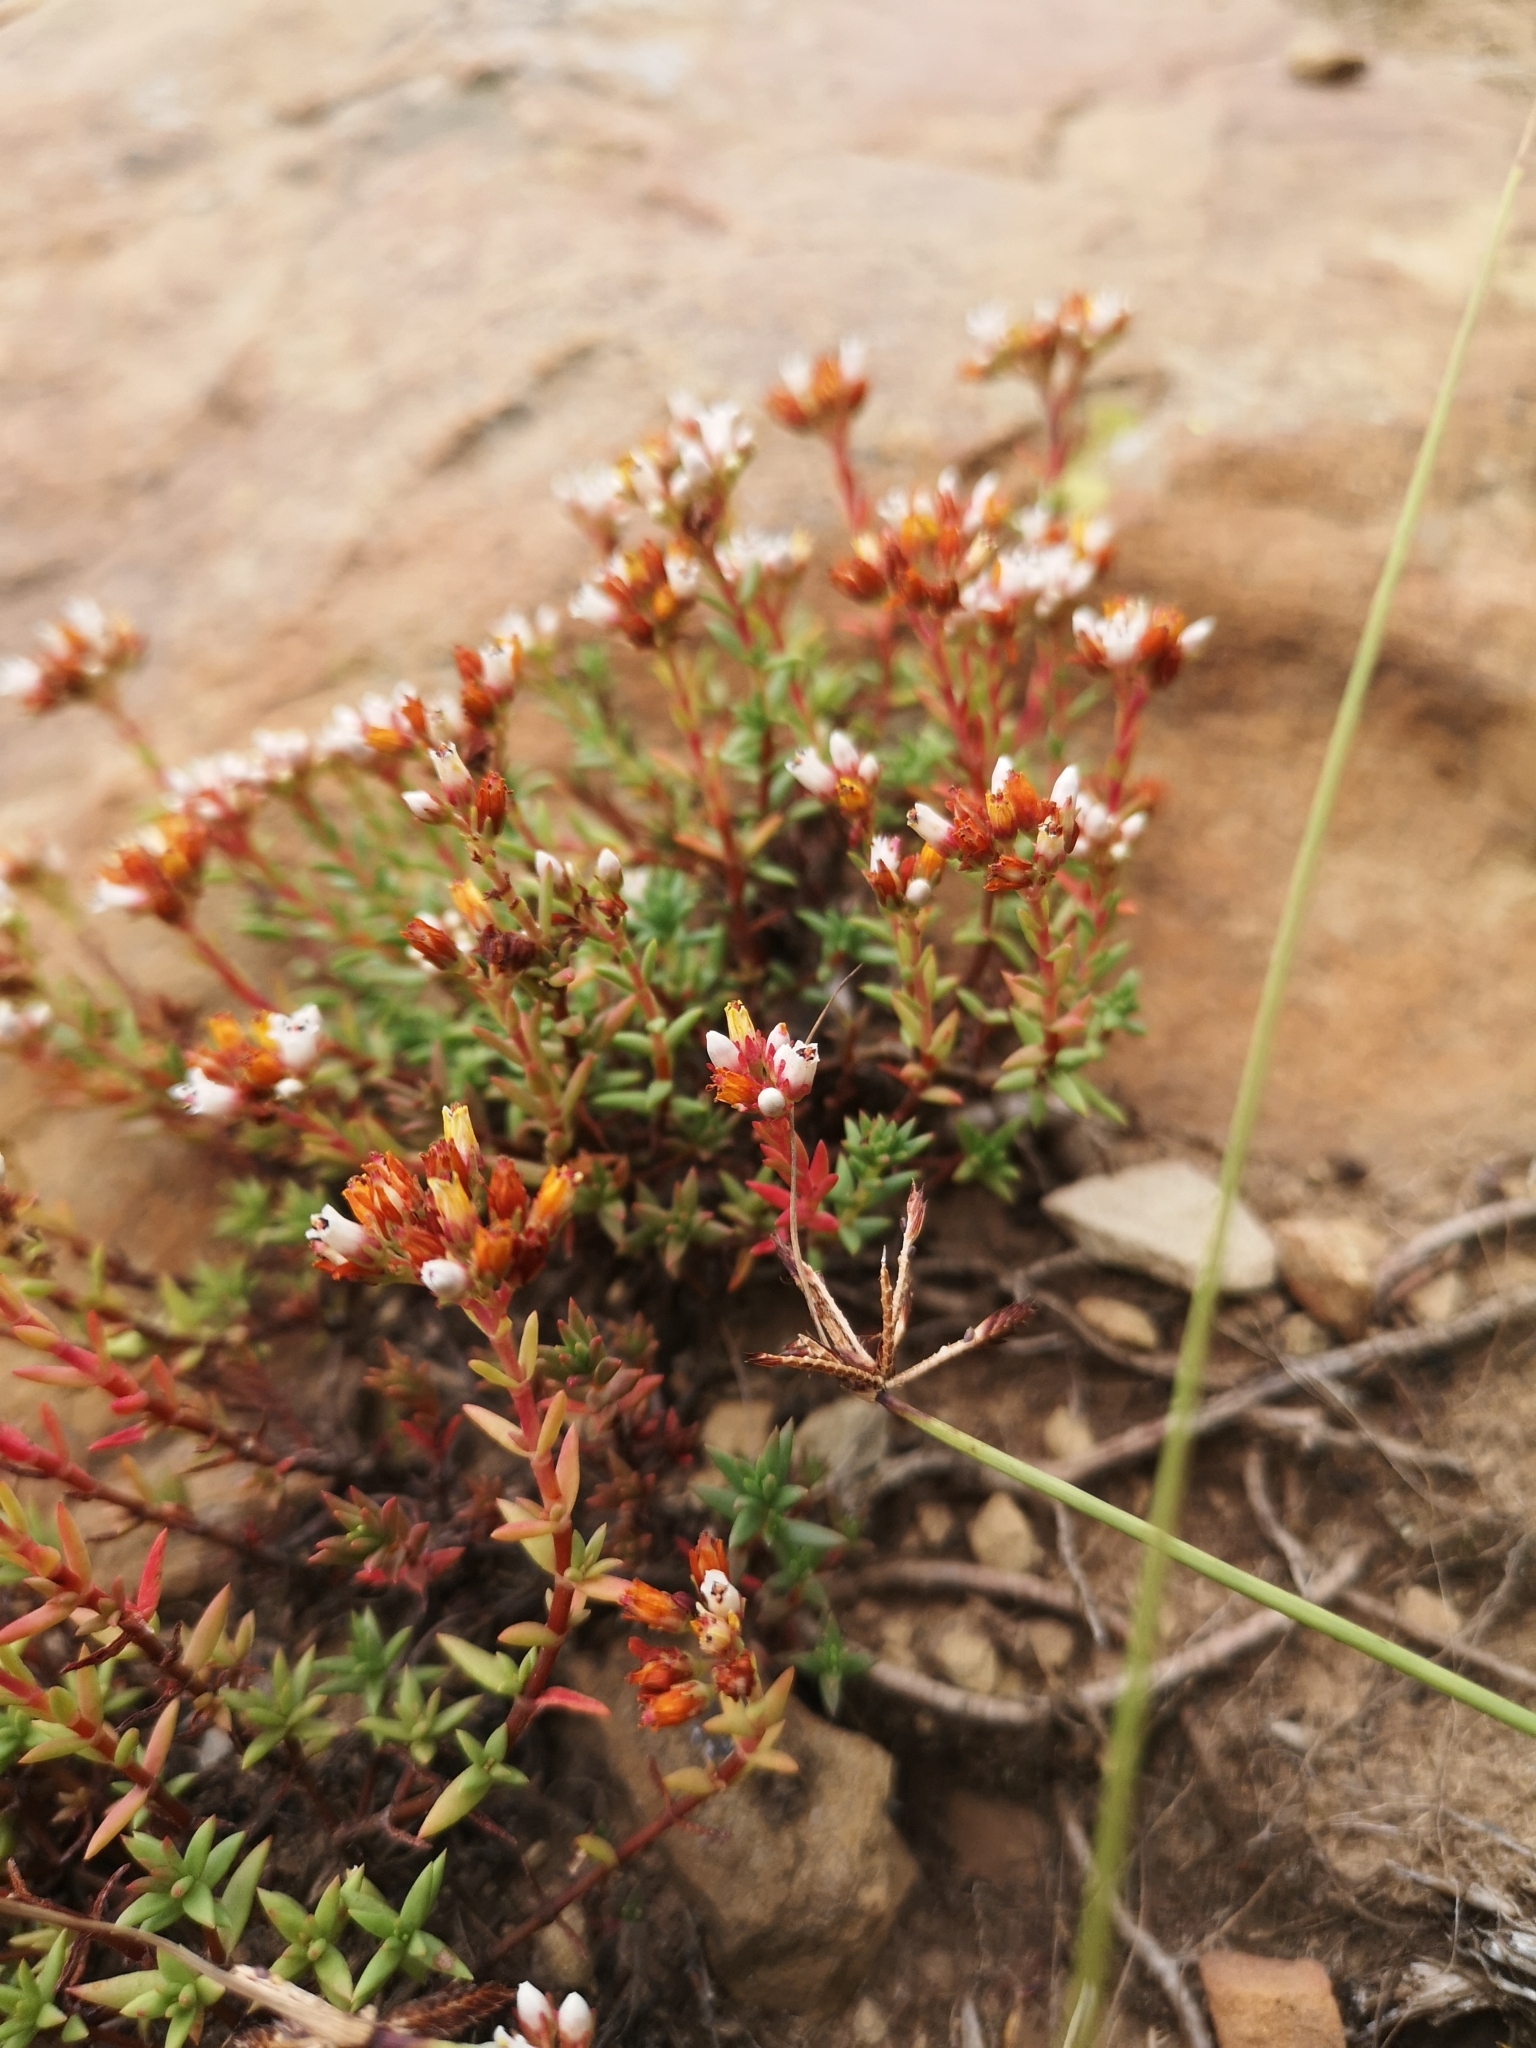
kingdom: Plantae
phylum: Tracheophyta
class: Magnoliopsida
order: Saxifragales
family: Crassulaceae
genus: Crassula
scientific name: Crassula dependens
